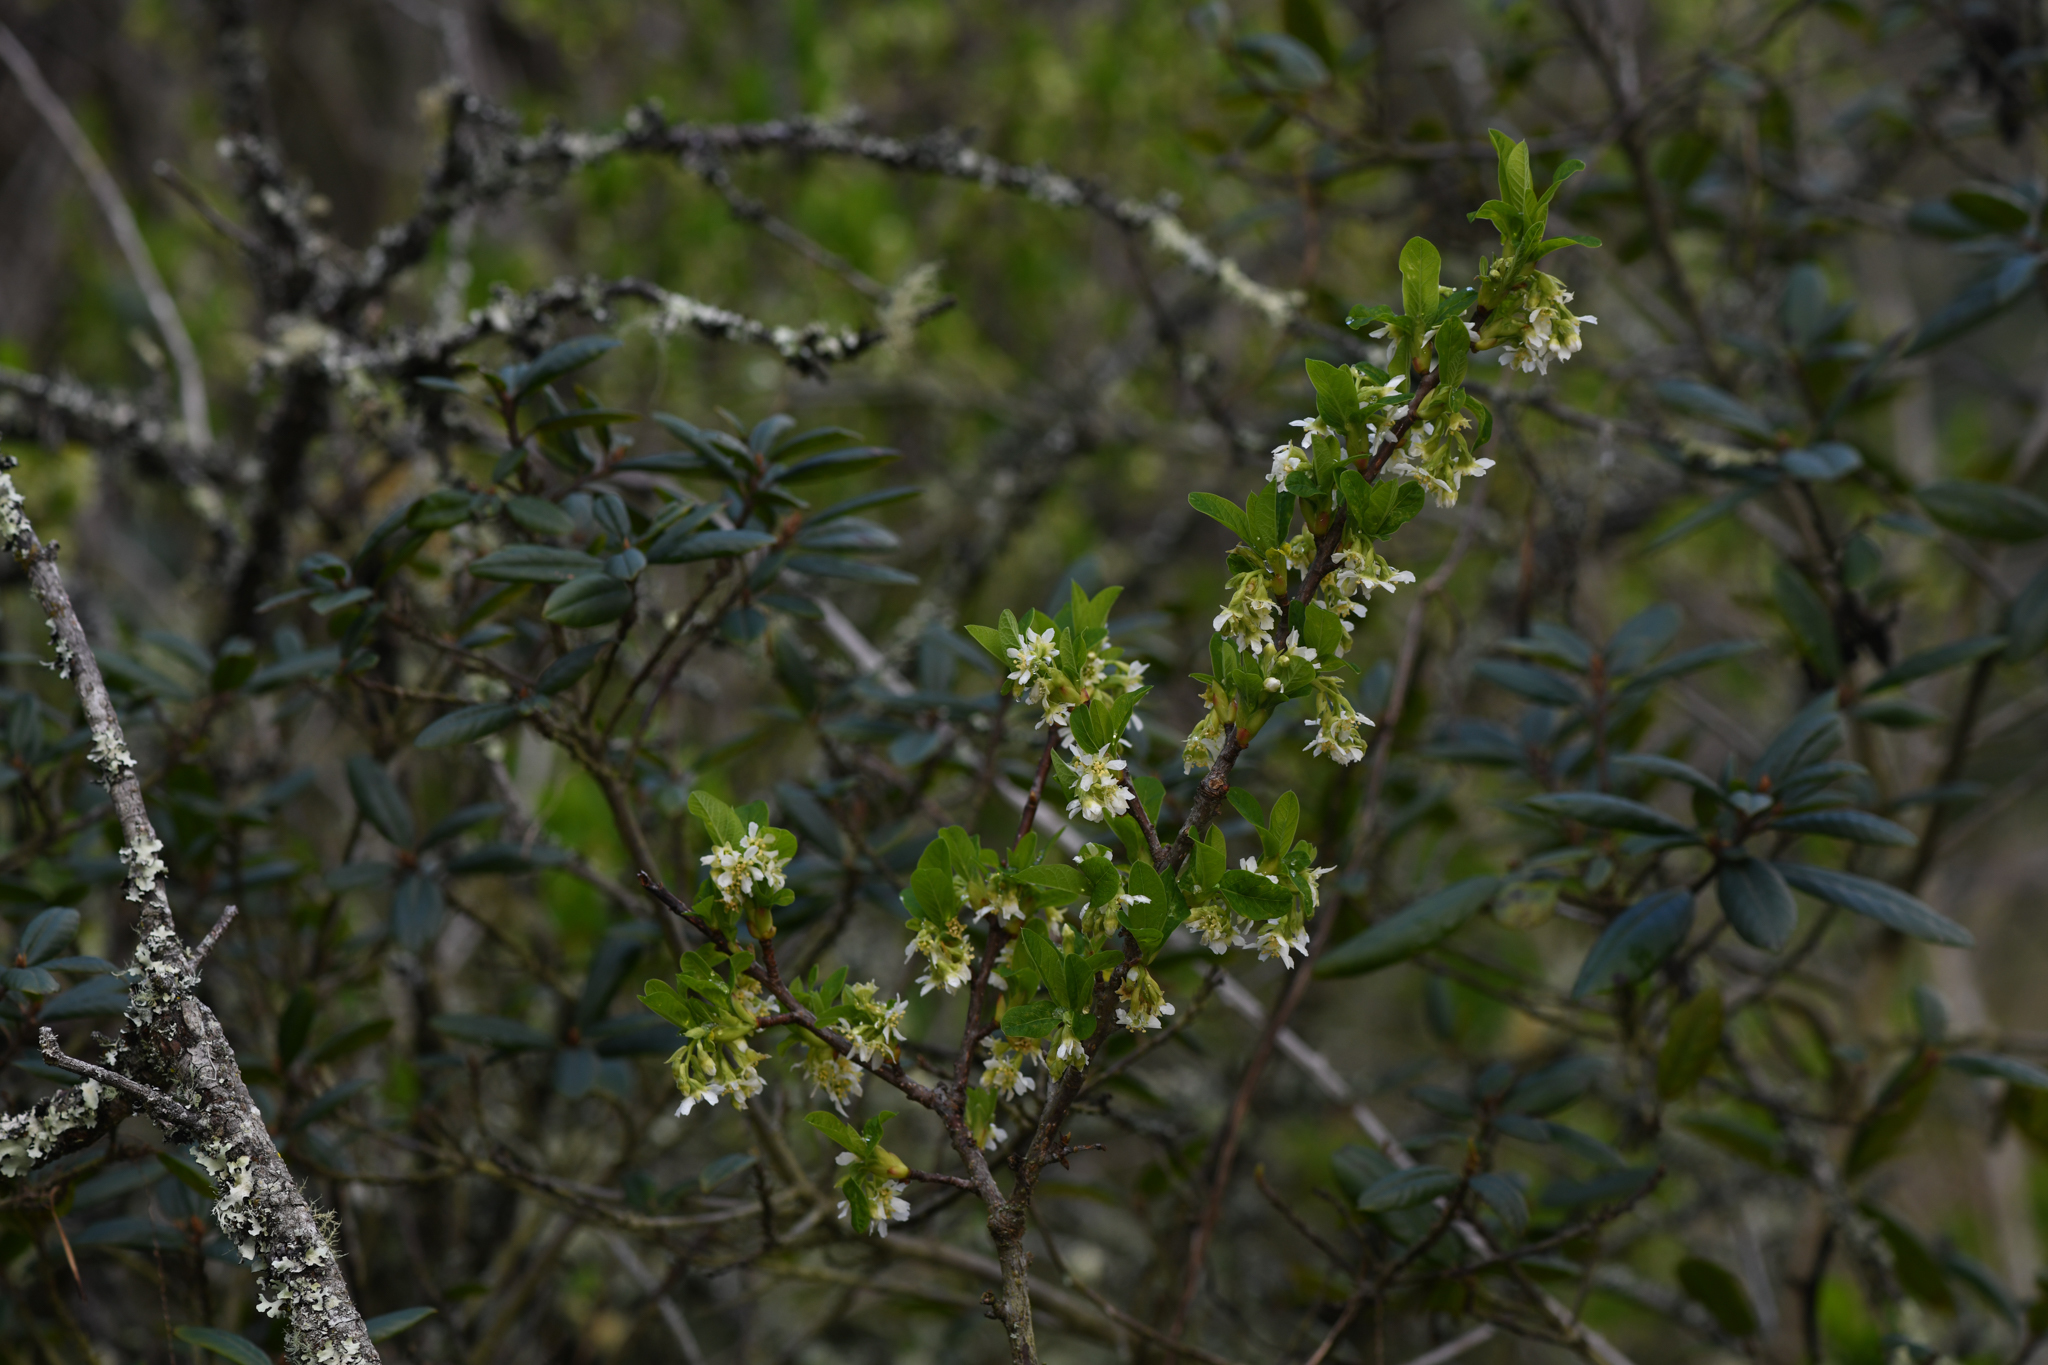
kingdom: Plantae
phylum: Tracheophyta
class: Magnoliopsida
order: Rosales
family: Rosaceae
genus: Oemleria
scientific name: Oemleria cerasiformis
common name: Osoberry
